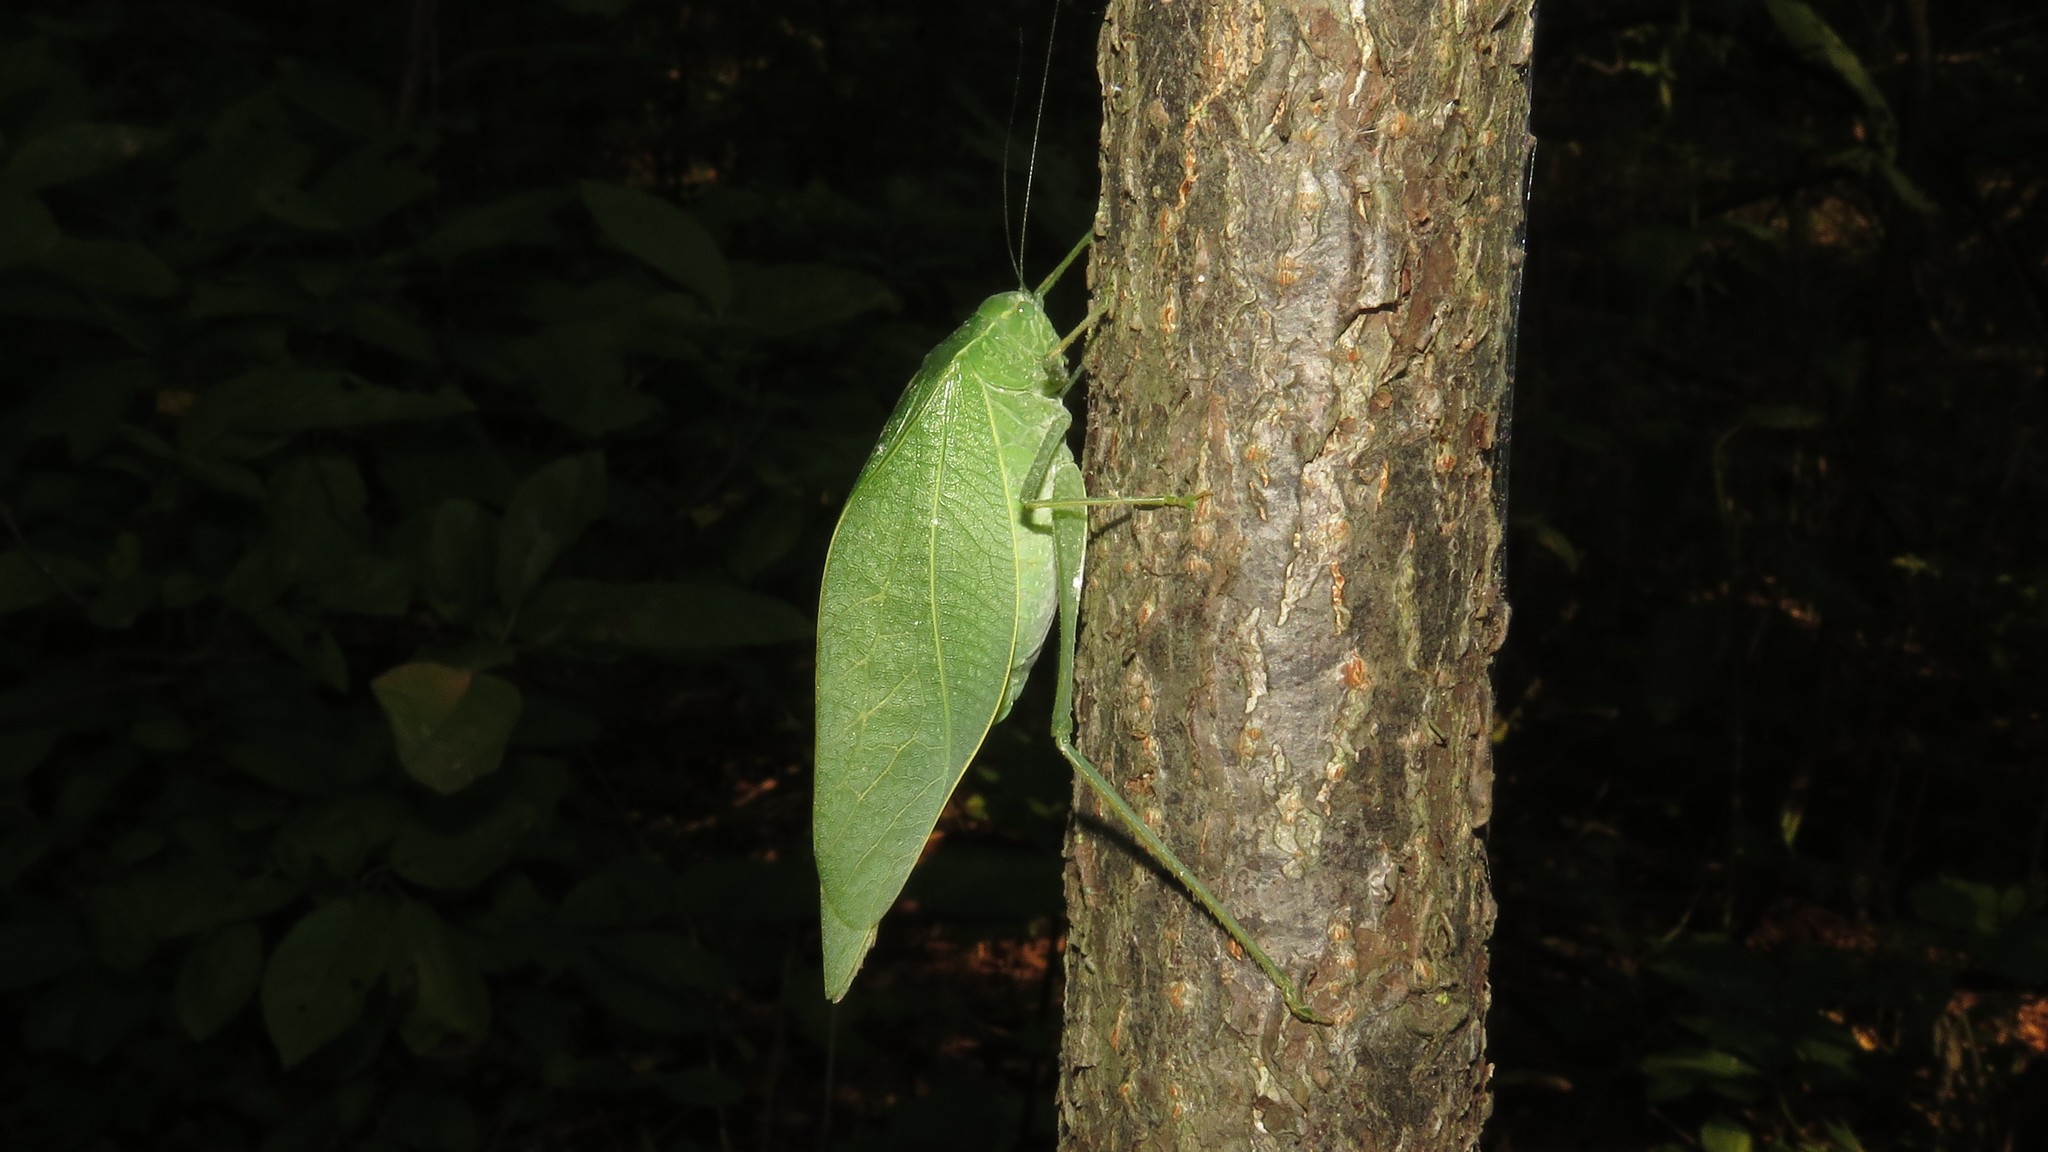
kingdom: Animalia
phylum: Arthropoda
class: Insecta
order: Orthoptera
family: Tettigoniidae
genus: Microcentrum
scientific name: Microcentrum rhombifolium
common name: Broad-winged katydid
